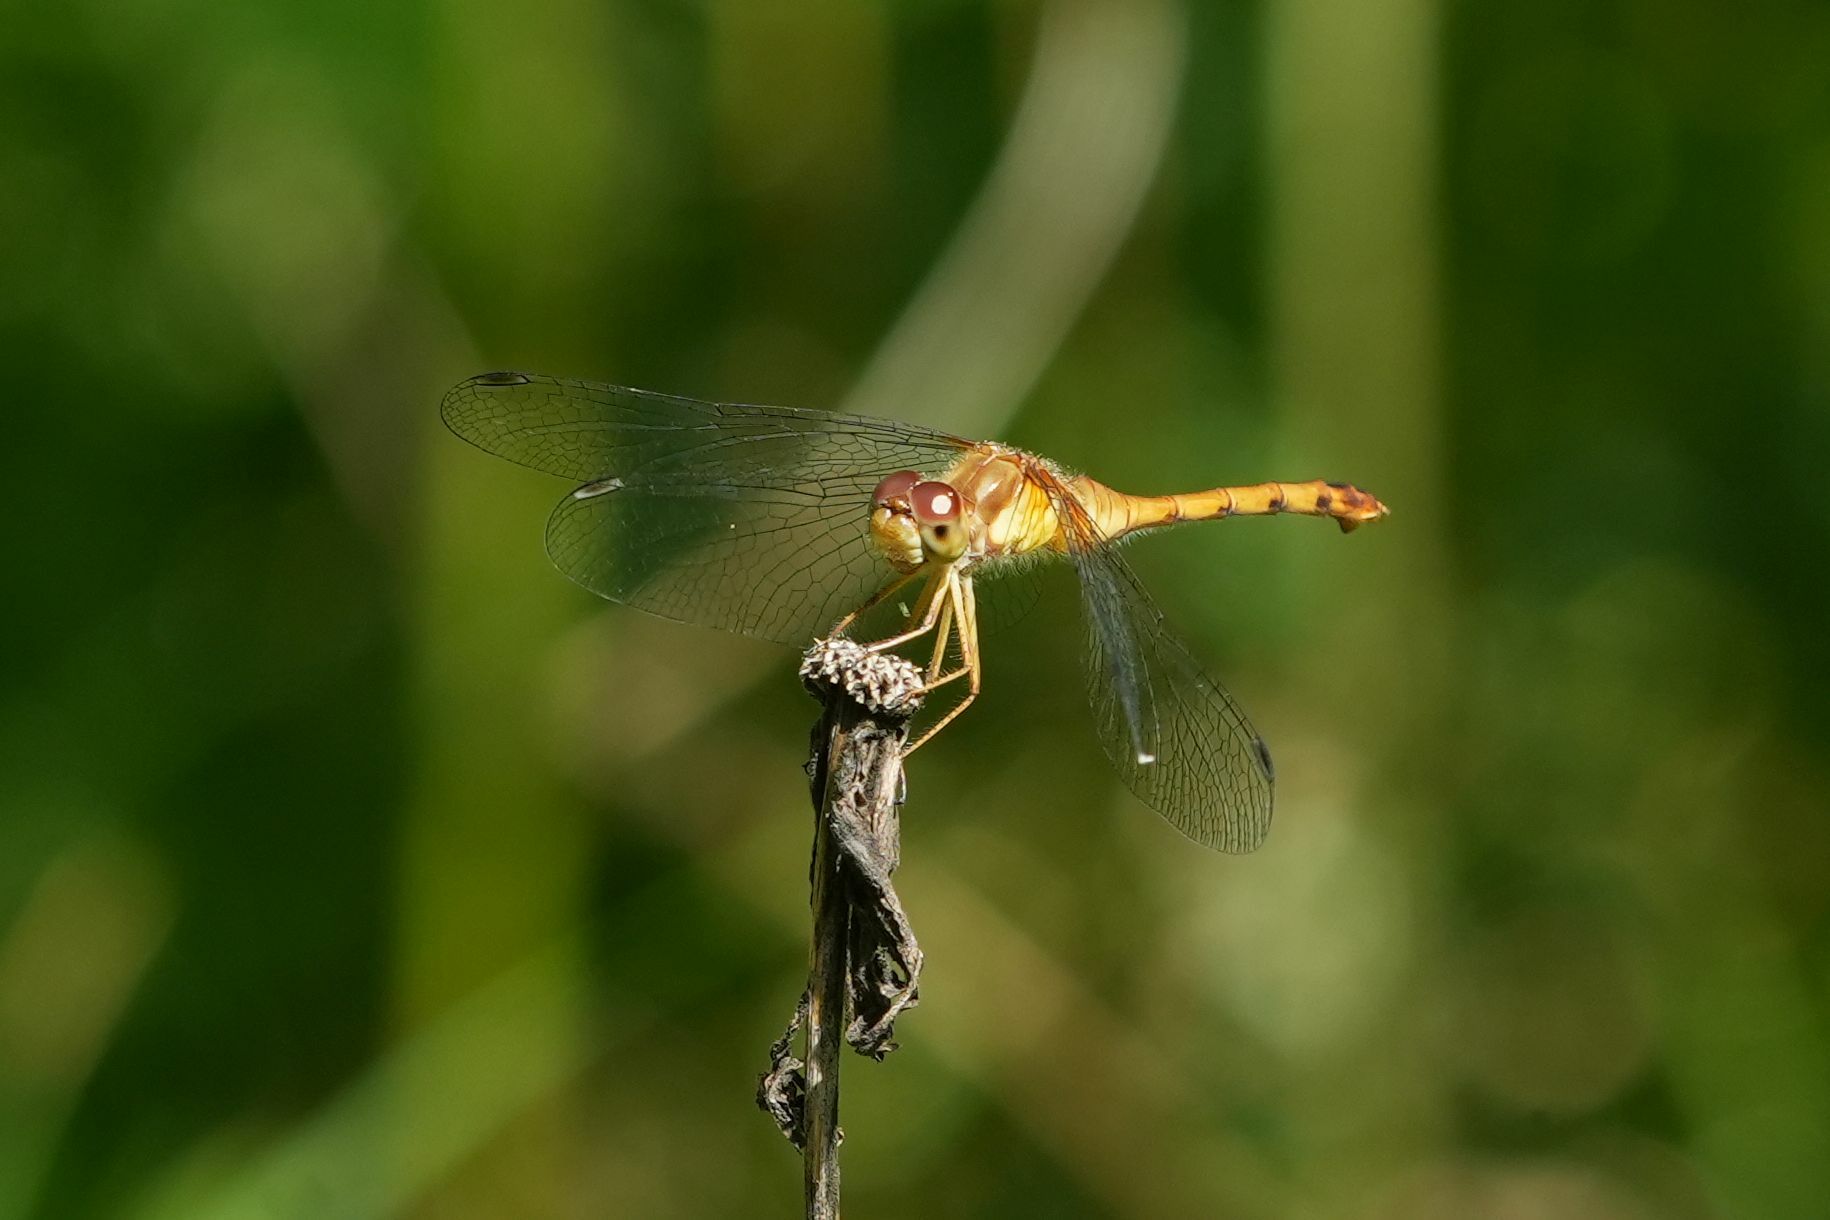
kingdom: Animalia
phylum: Arthropoda
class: Insecta
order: Odonata
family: Libellulidae
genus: Sympetrum
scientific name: Sympetrum vicinum
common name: Autumn meadowhawk
